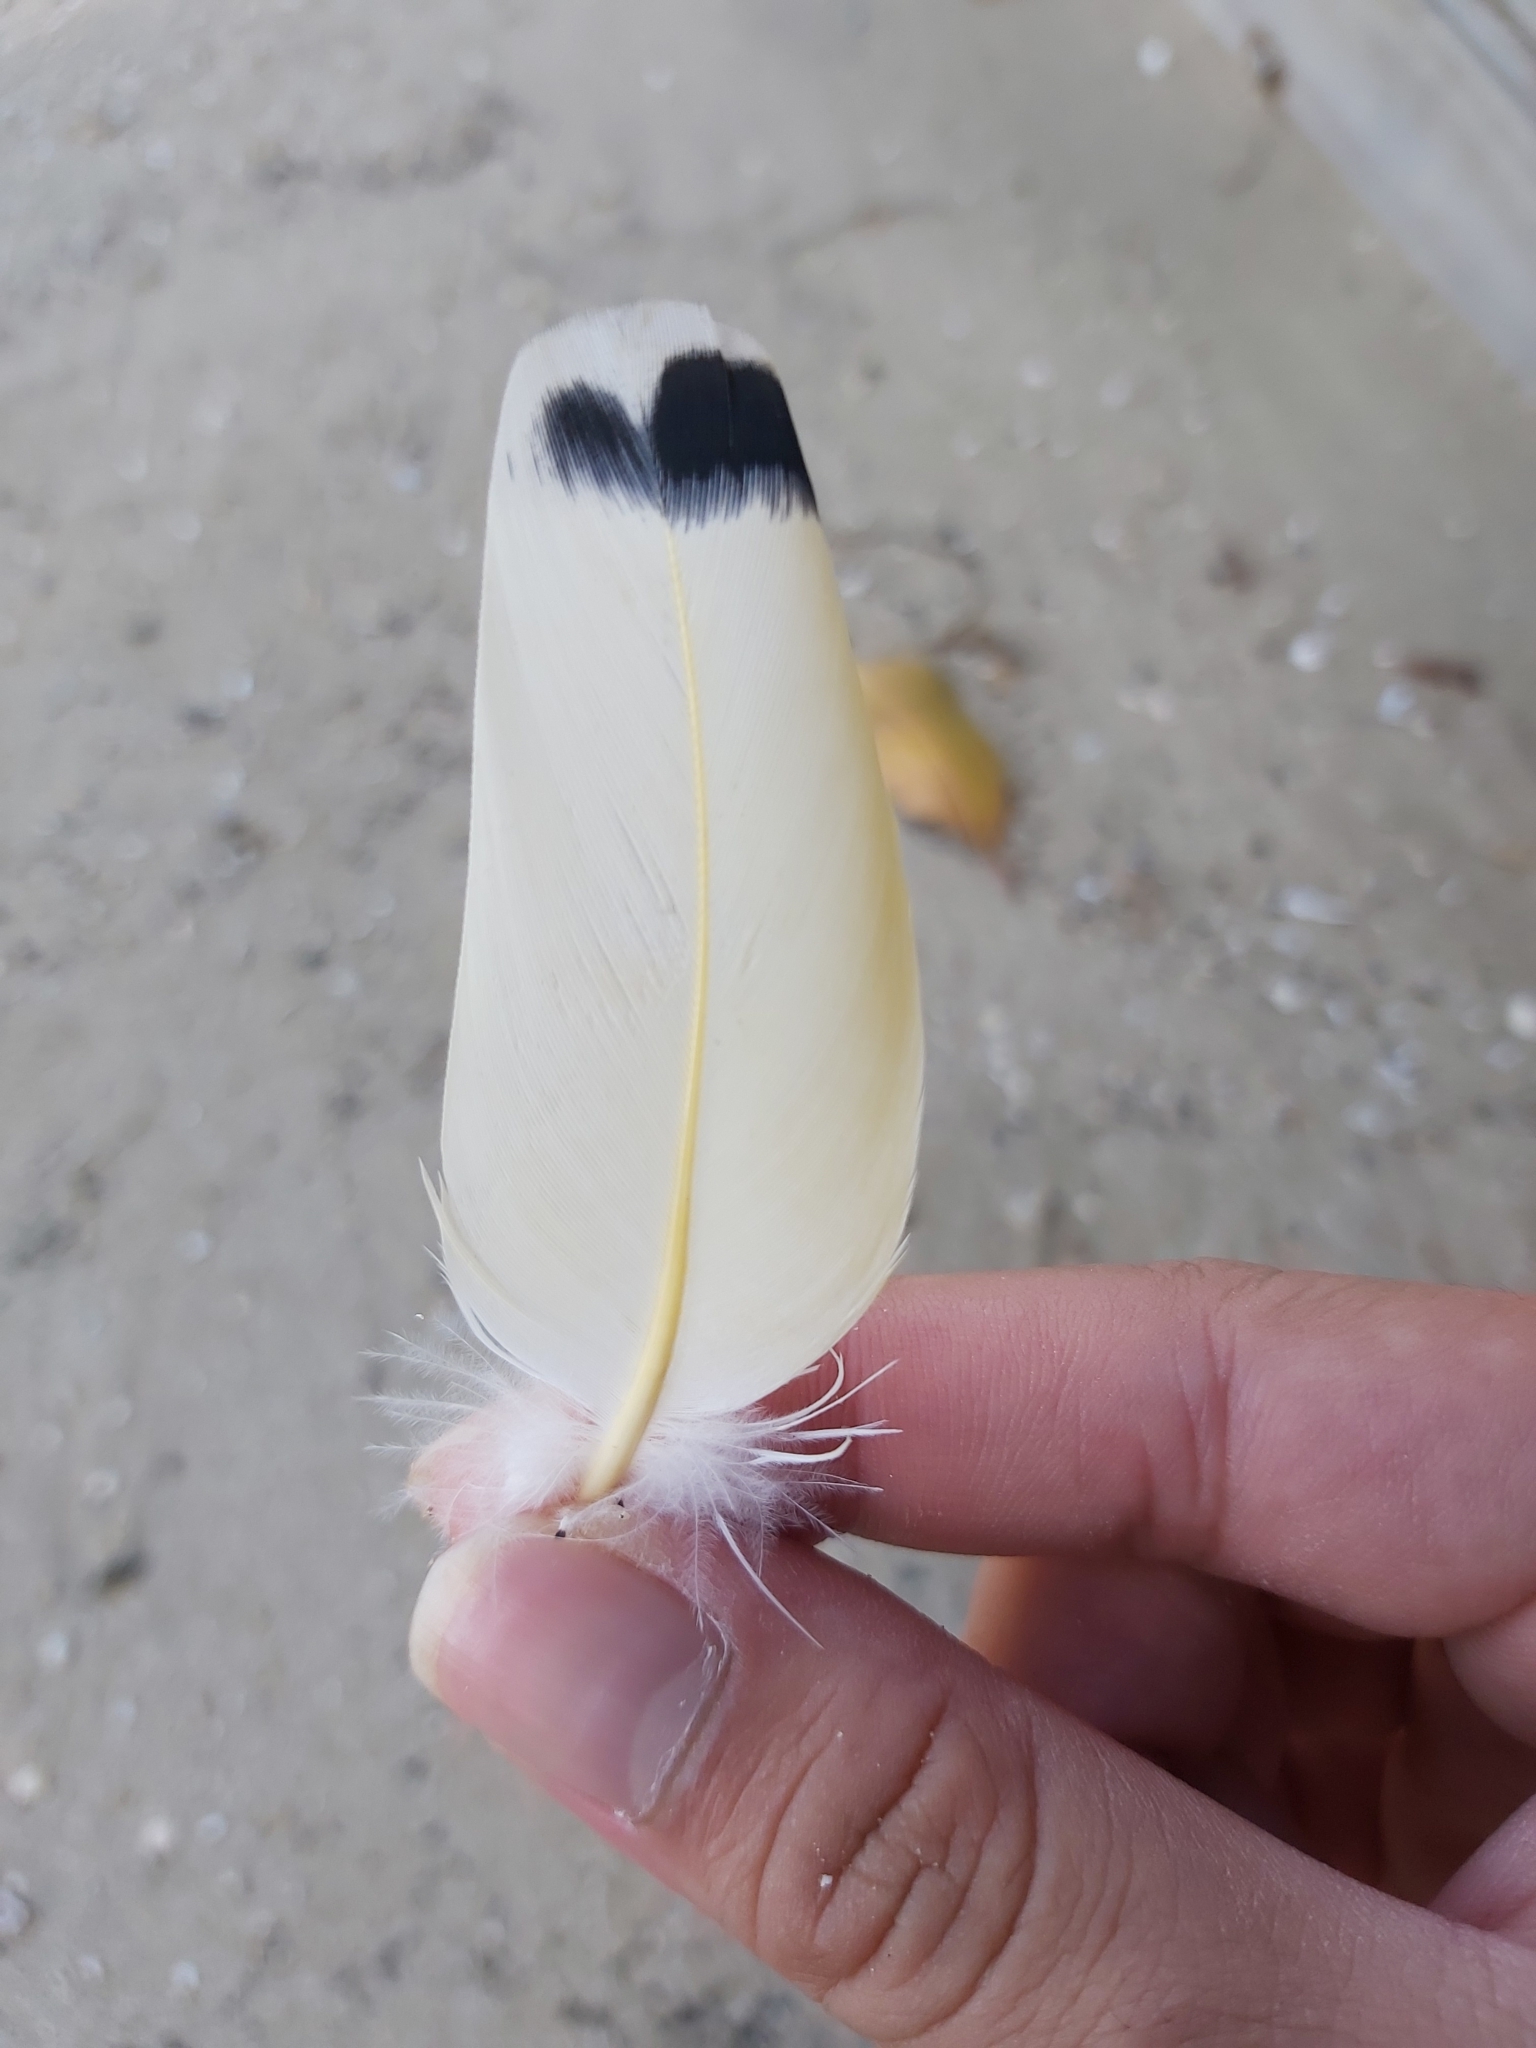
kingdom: Animalia
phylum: Chordata
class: Aves
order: Columbiformes
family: Columbidae
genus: Ducula
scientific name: Ducula spilorrhoa
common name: Torresian imperial pigeon
